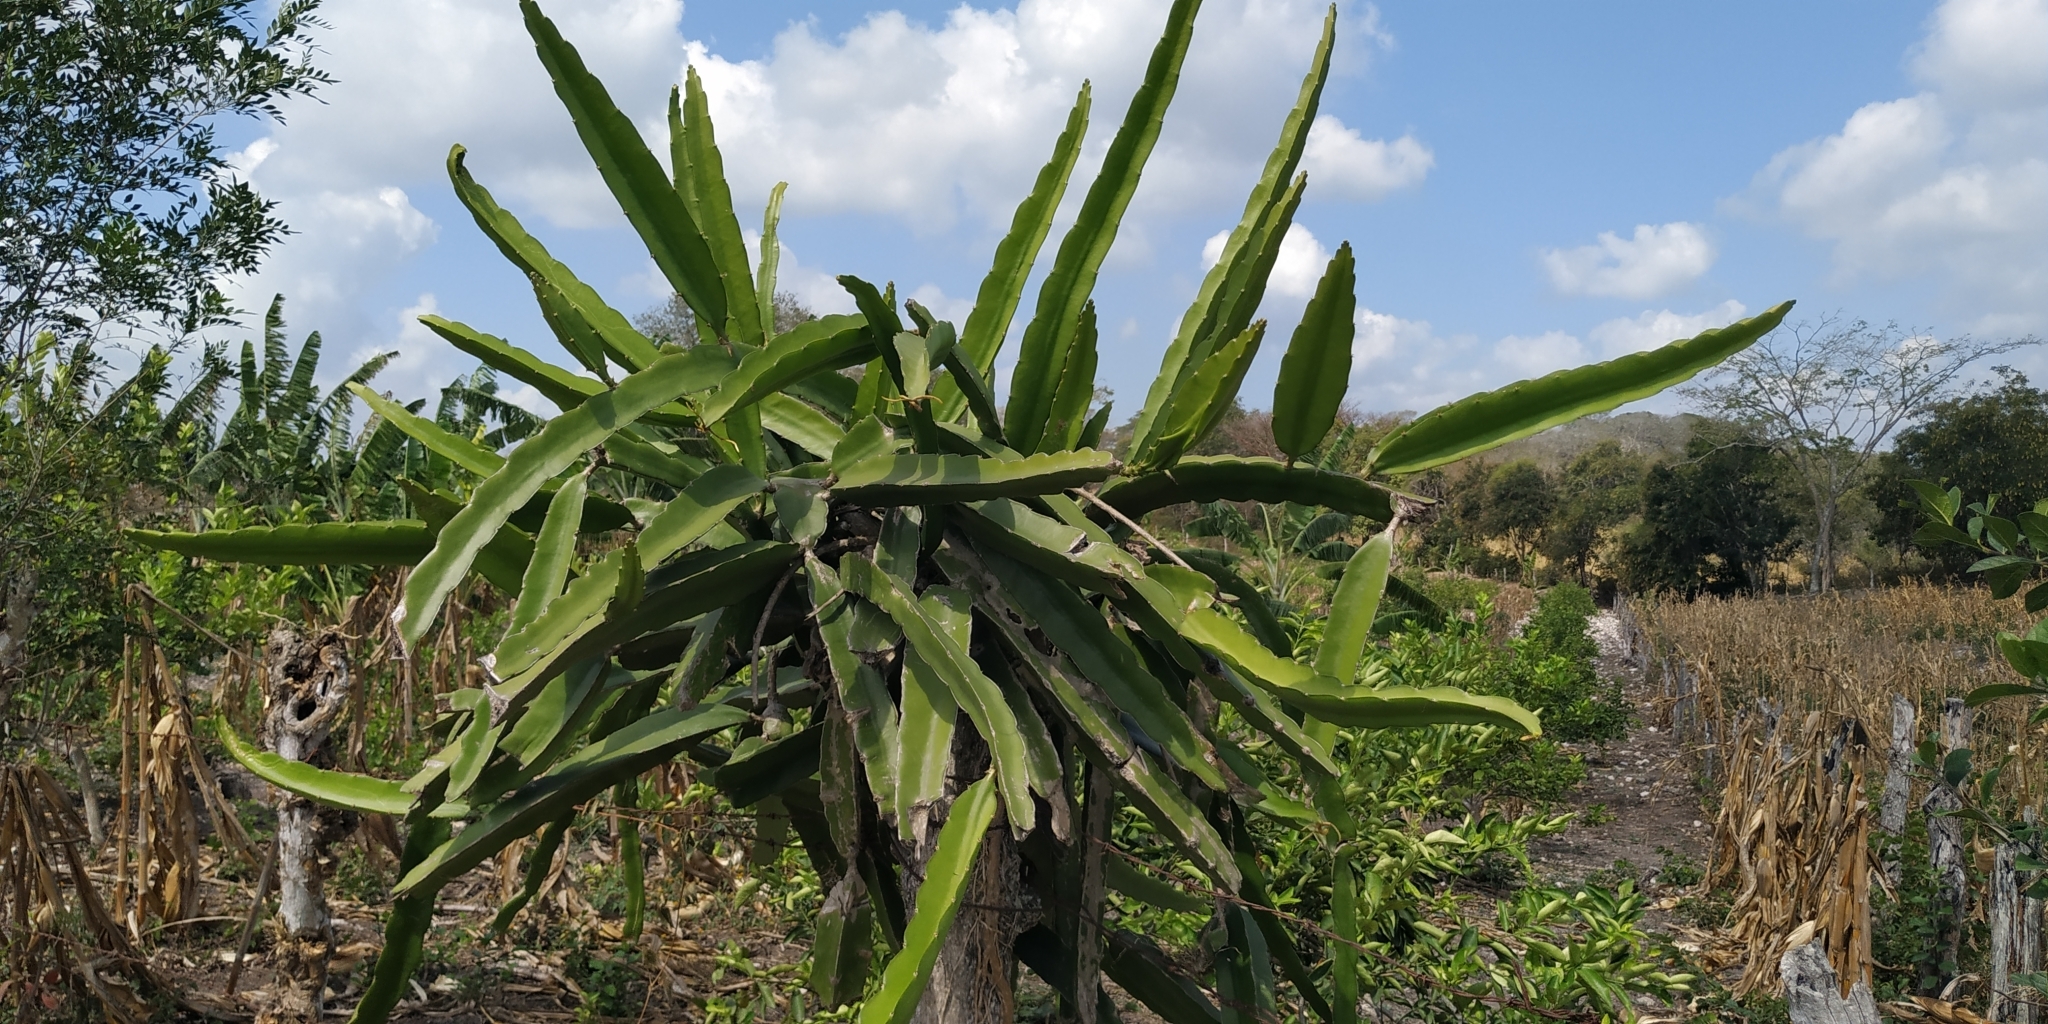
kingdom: Plantae
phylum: Tracheophyta
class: Magnoliopsida
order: Caryophyllales
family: Cactaceae
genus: Selenicereus
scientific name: Selenicereus undatus
